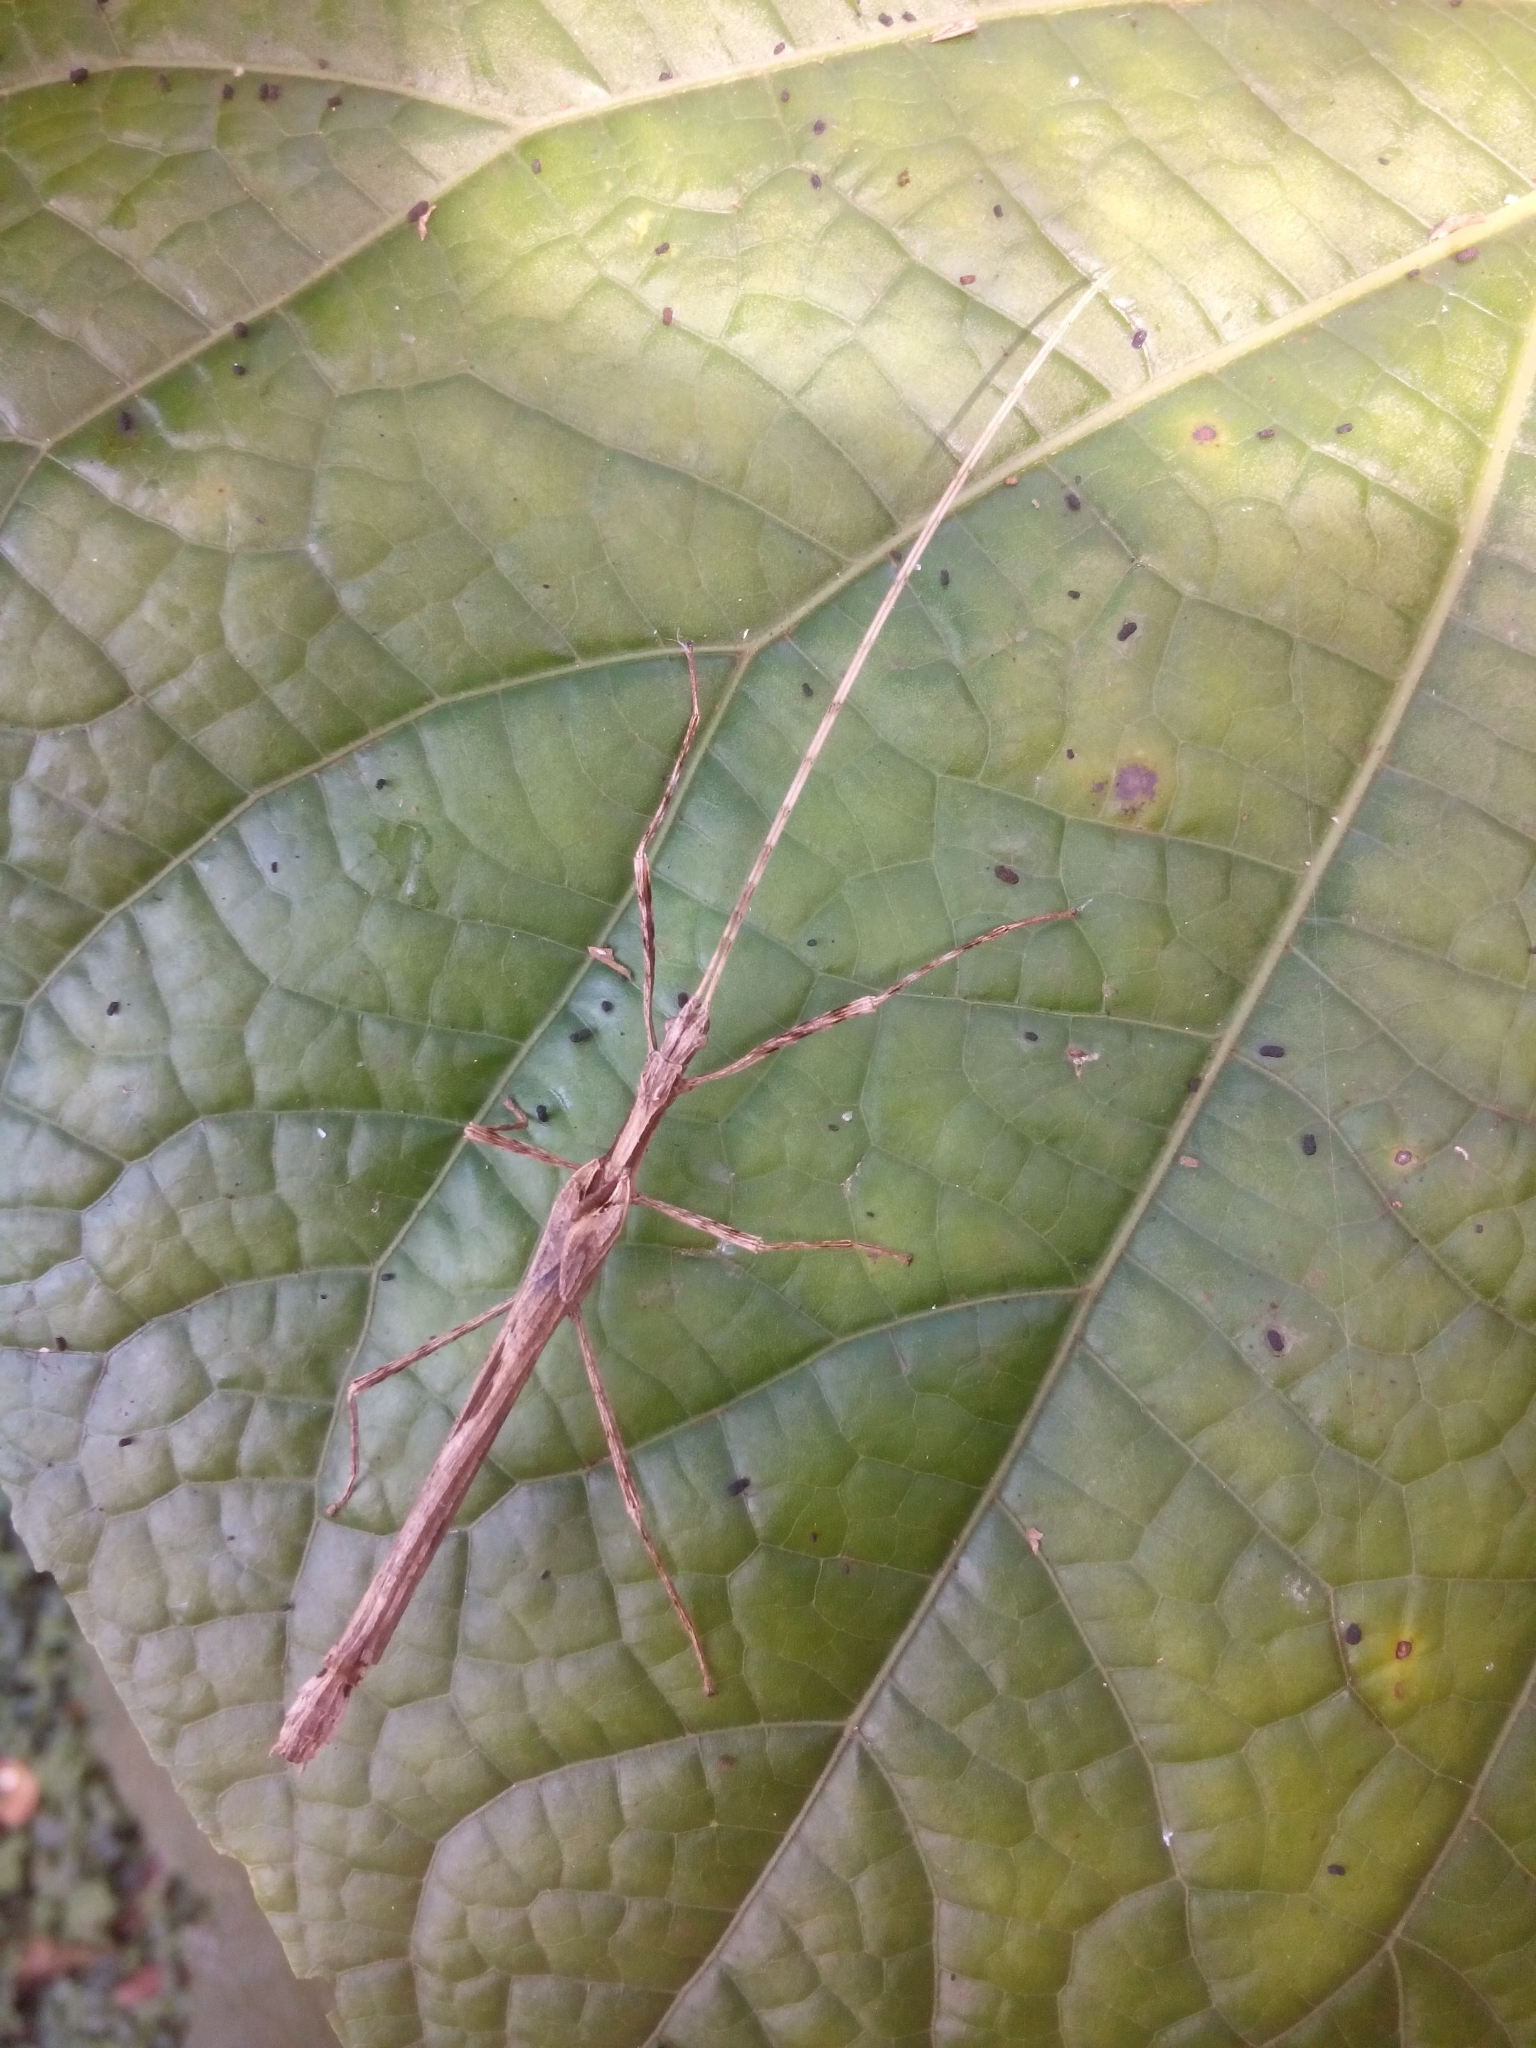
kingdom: Animalia
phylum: Arthropoda
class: Insecta
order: Phasmida
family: Pseudophasmatidae
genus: Xerosoma
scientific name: Xerosoma canaliculatum
